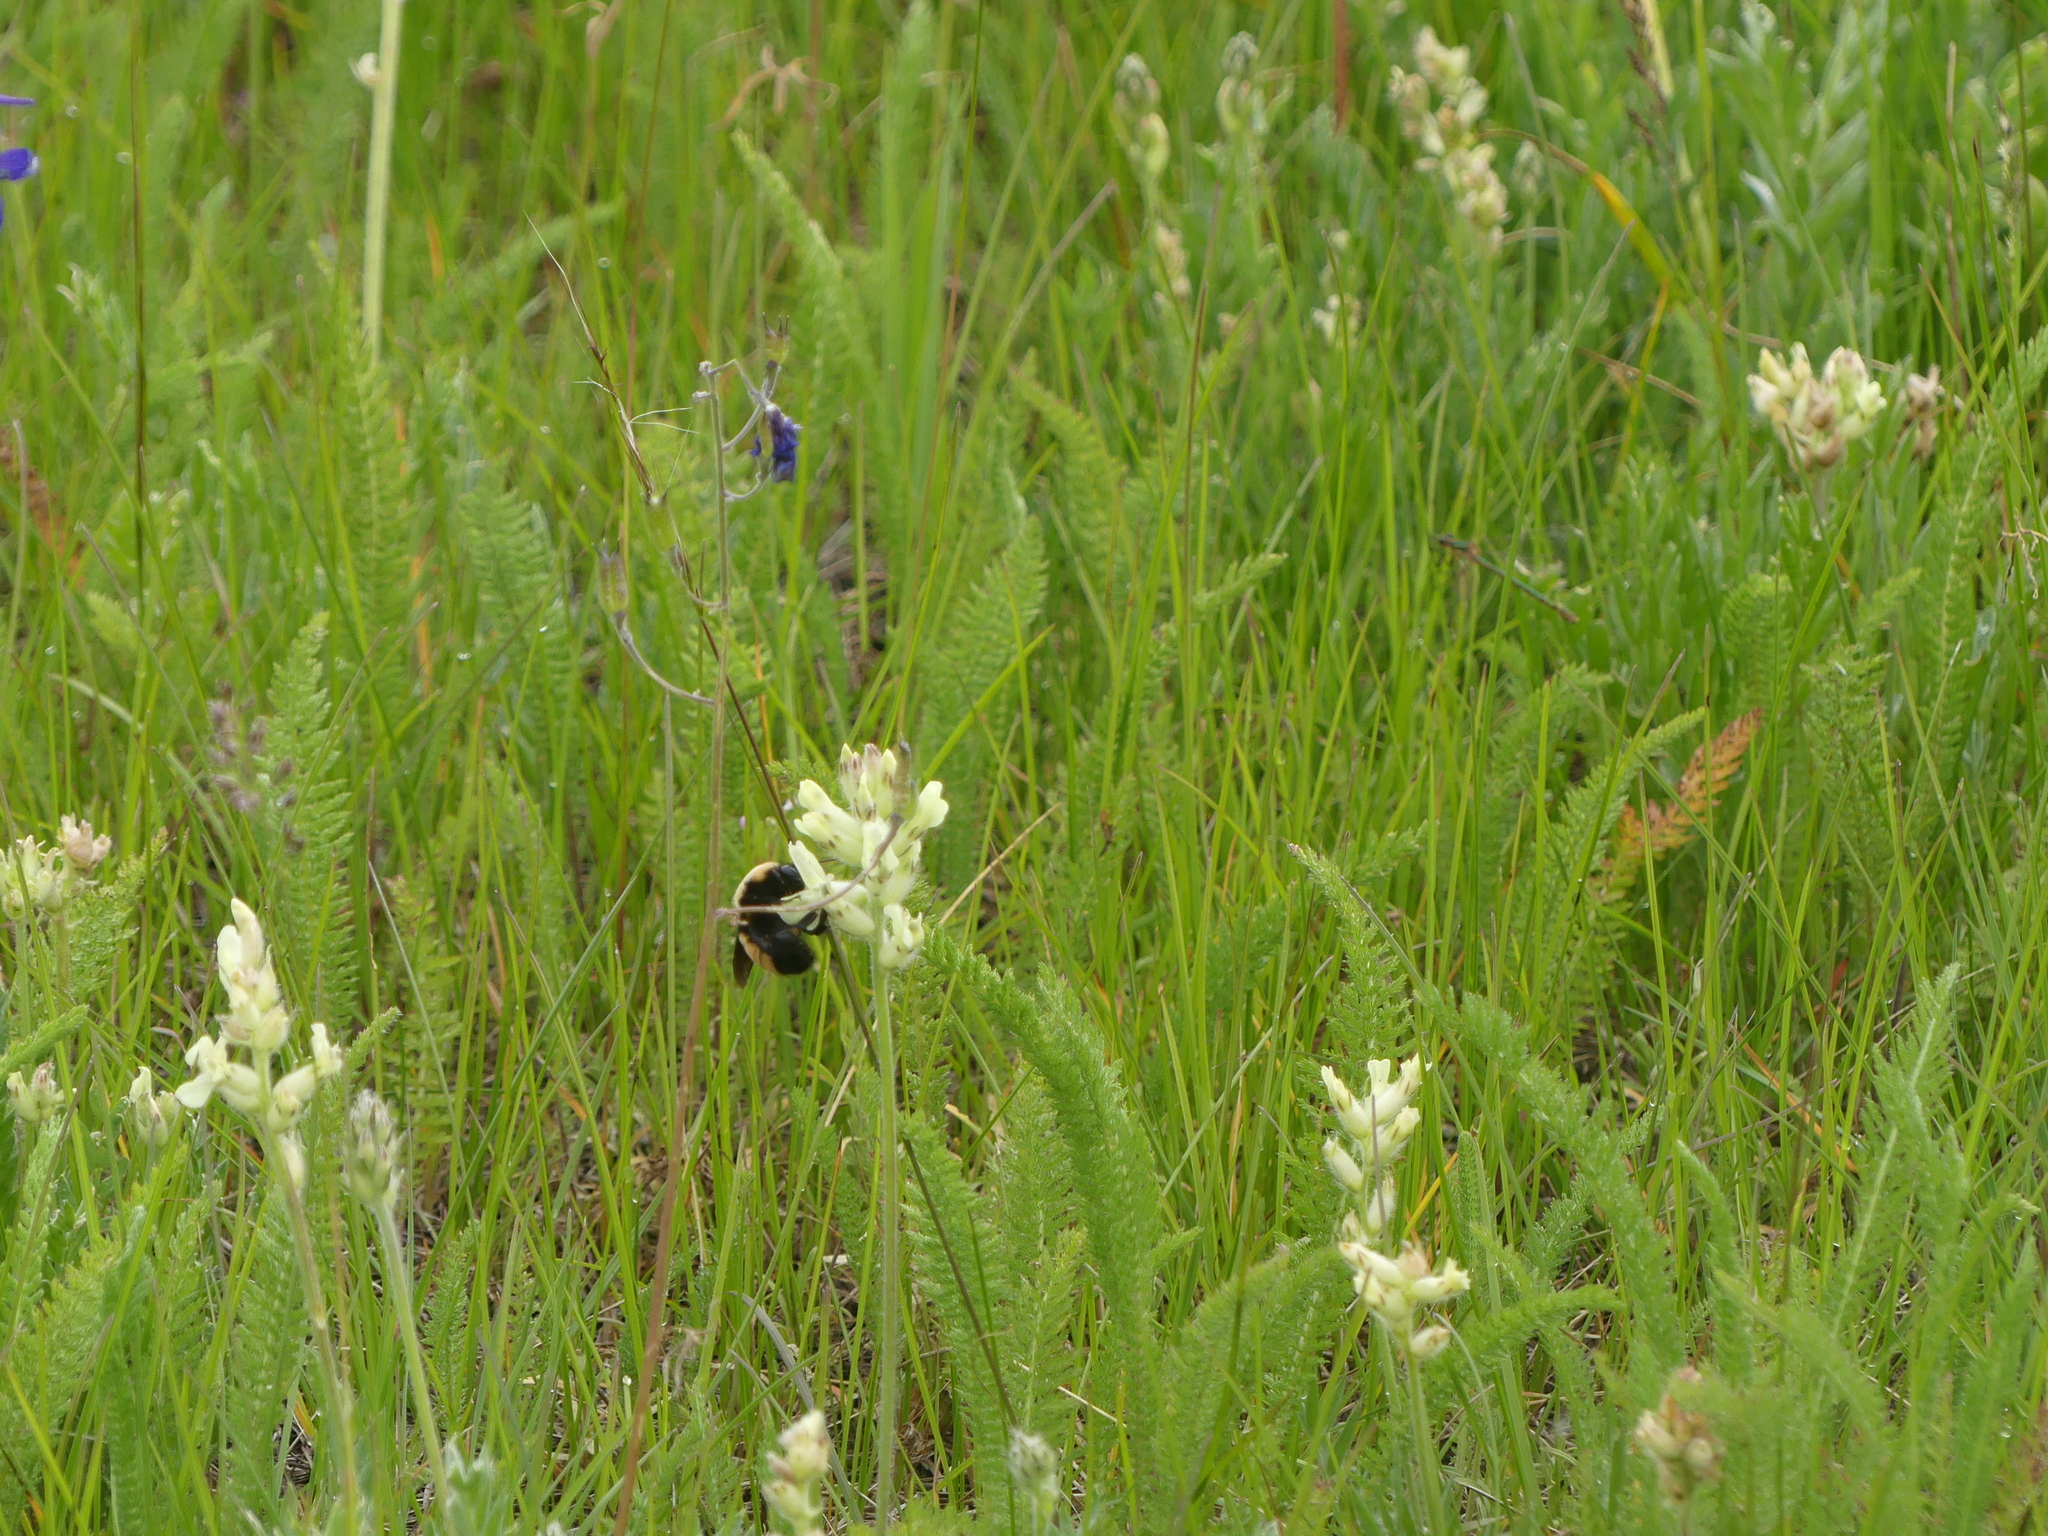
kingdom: Animalia
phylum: Arthropoda
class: Insecta
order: Hymenoptera
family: Apidae
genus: Bombus
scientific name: Bombus nevadensis
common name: Nevada bumble bee
